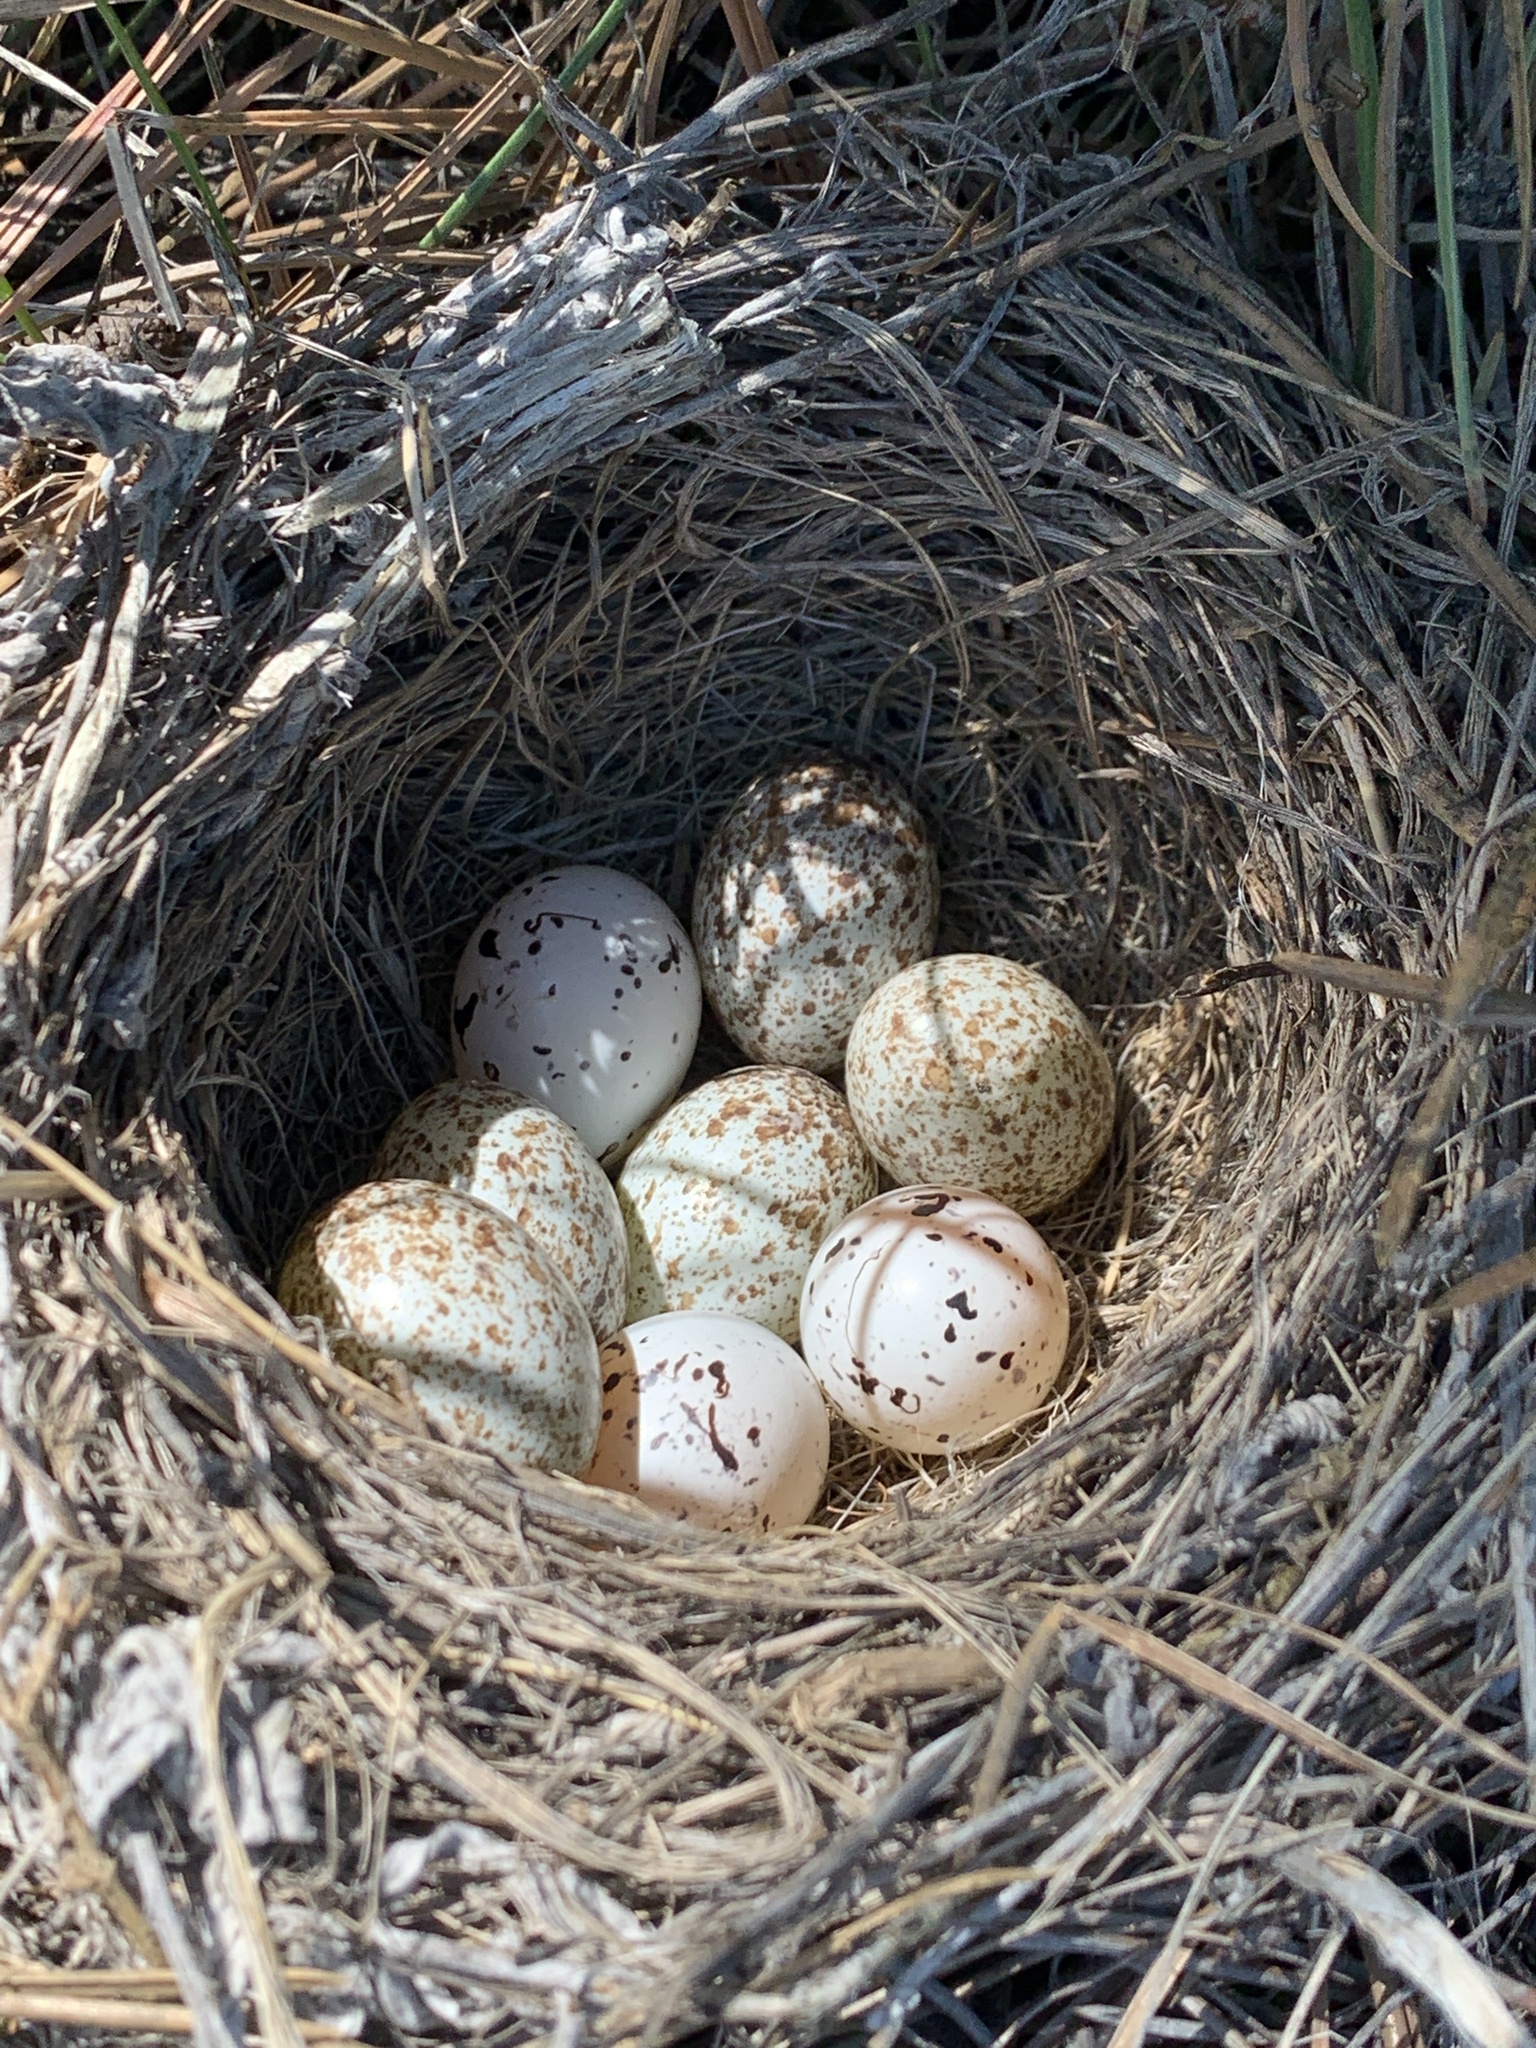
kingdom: Animalia
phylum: Chordata
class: Aves
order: Passeriformes
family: Passerellidae
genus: Chondestes
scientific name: Chondestes grammacus
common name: Lark sparrow
